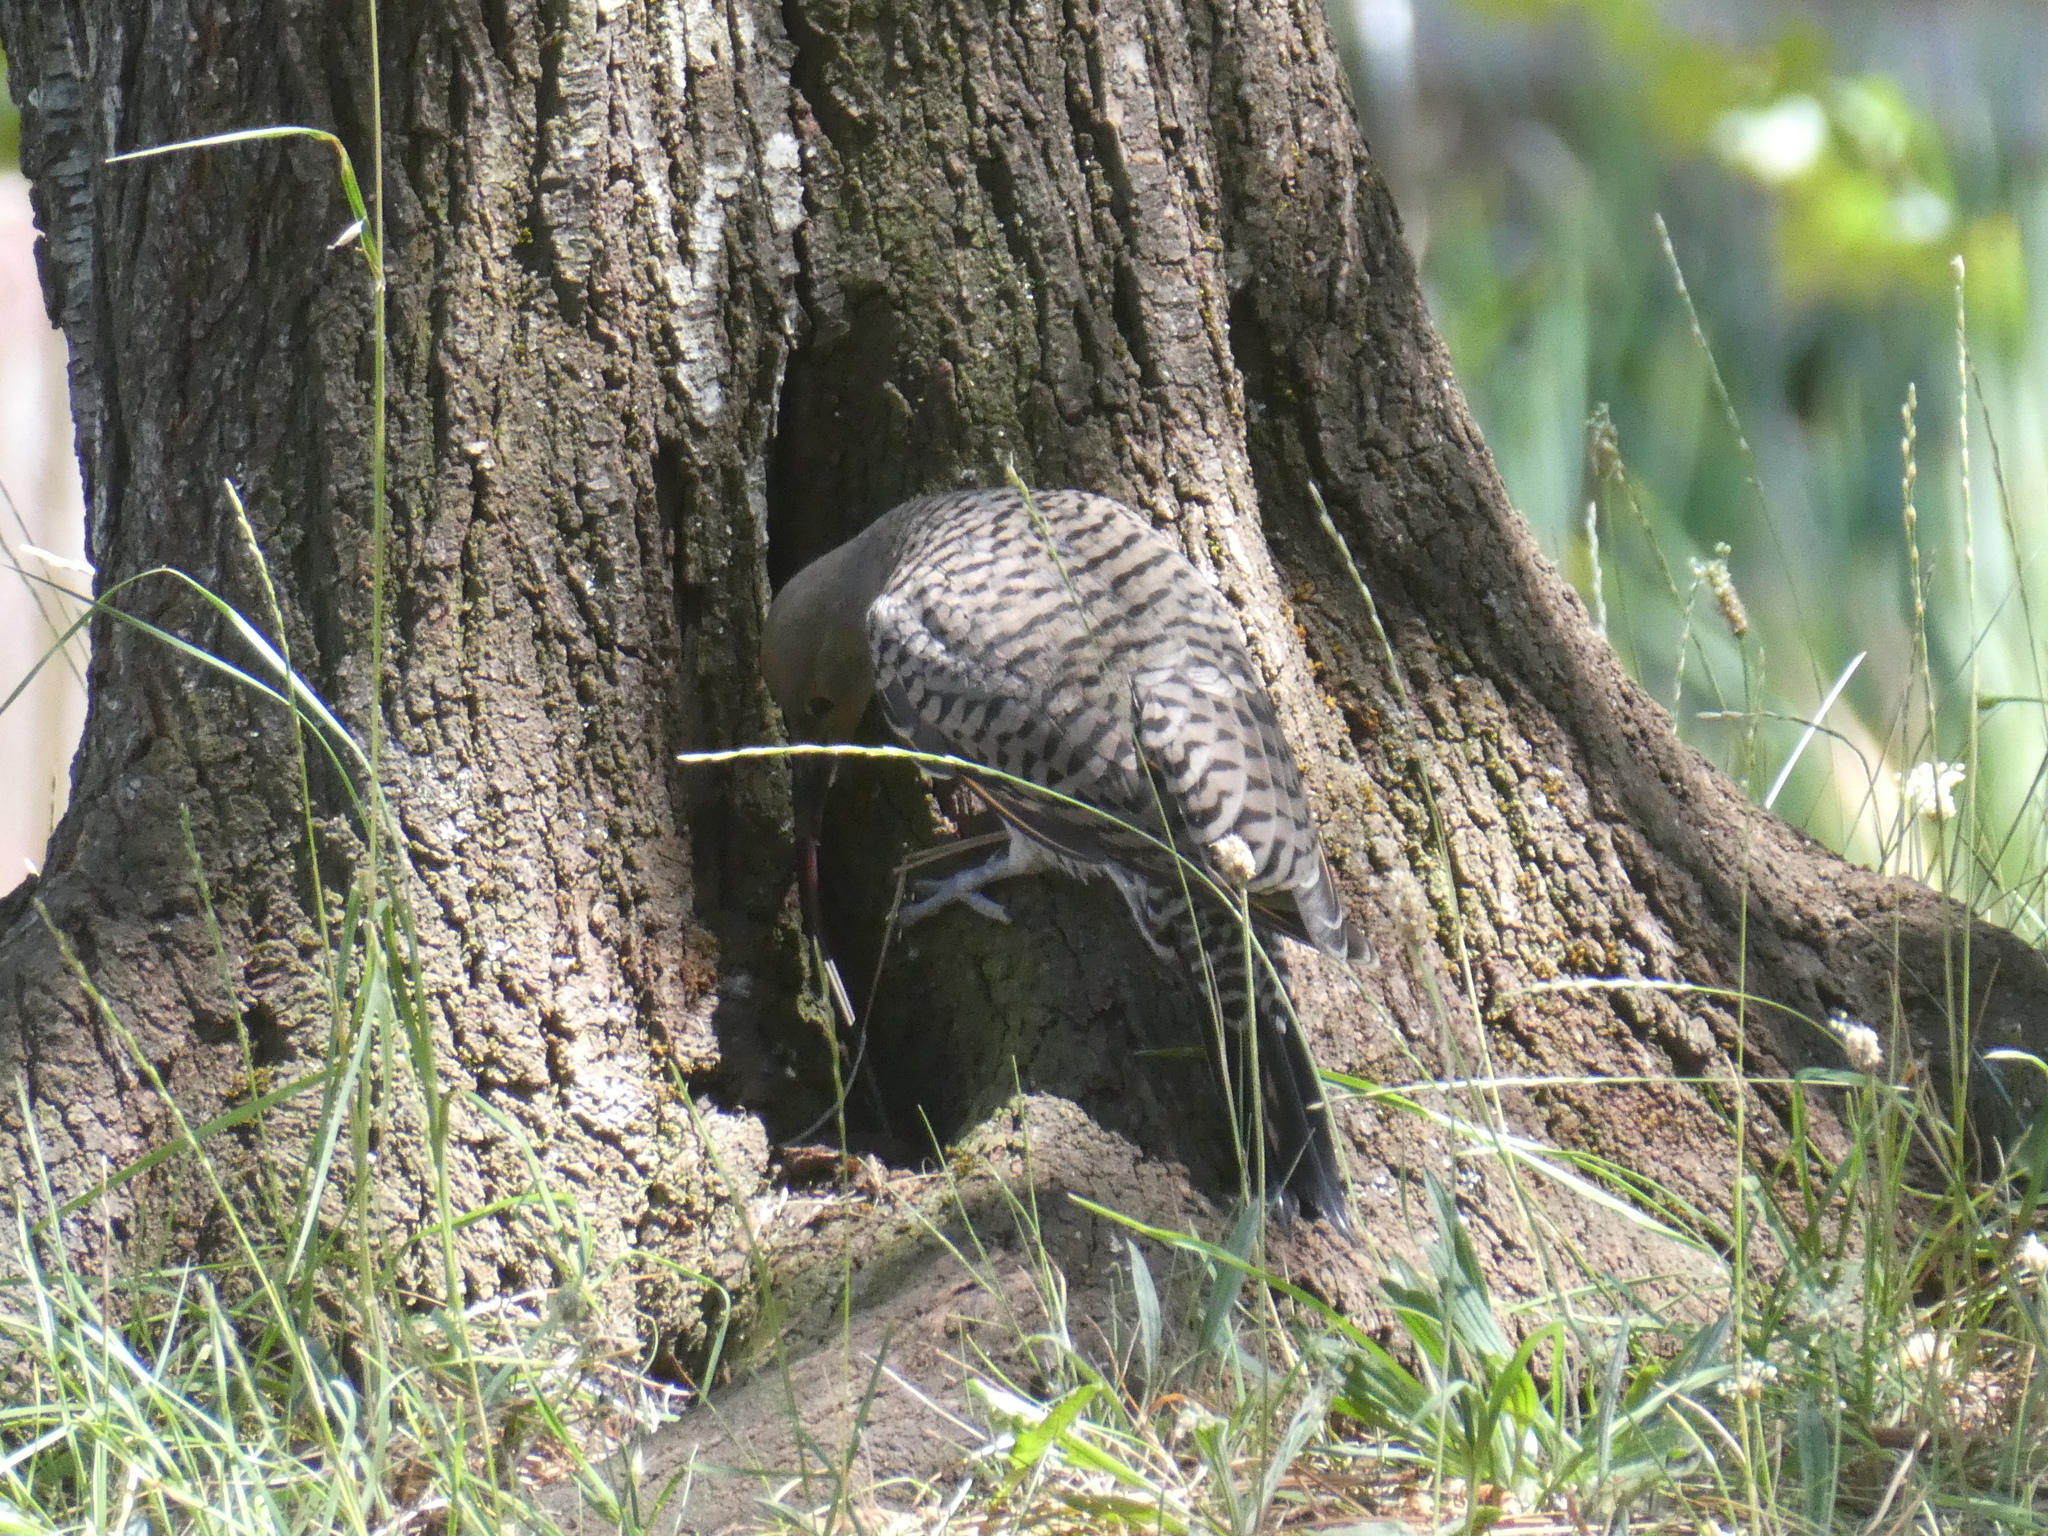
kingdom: Animalia
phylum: Chordata
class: Aves
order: Piciformes
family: Picidae
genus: Colaptes
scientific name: Colaptes auratus
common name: Northern flicker
